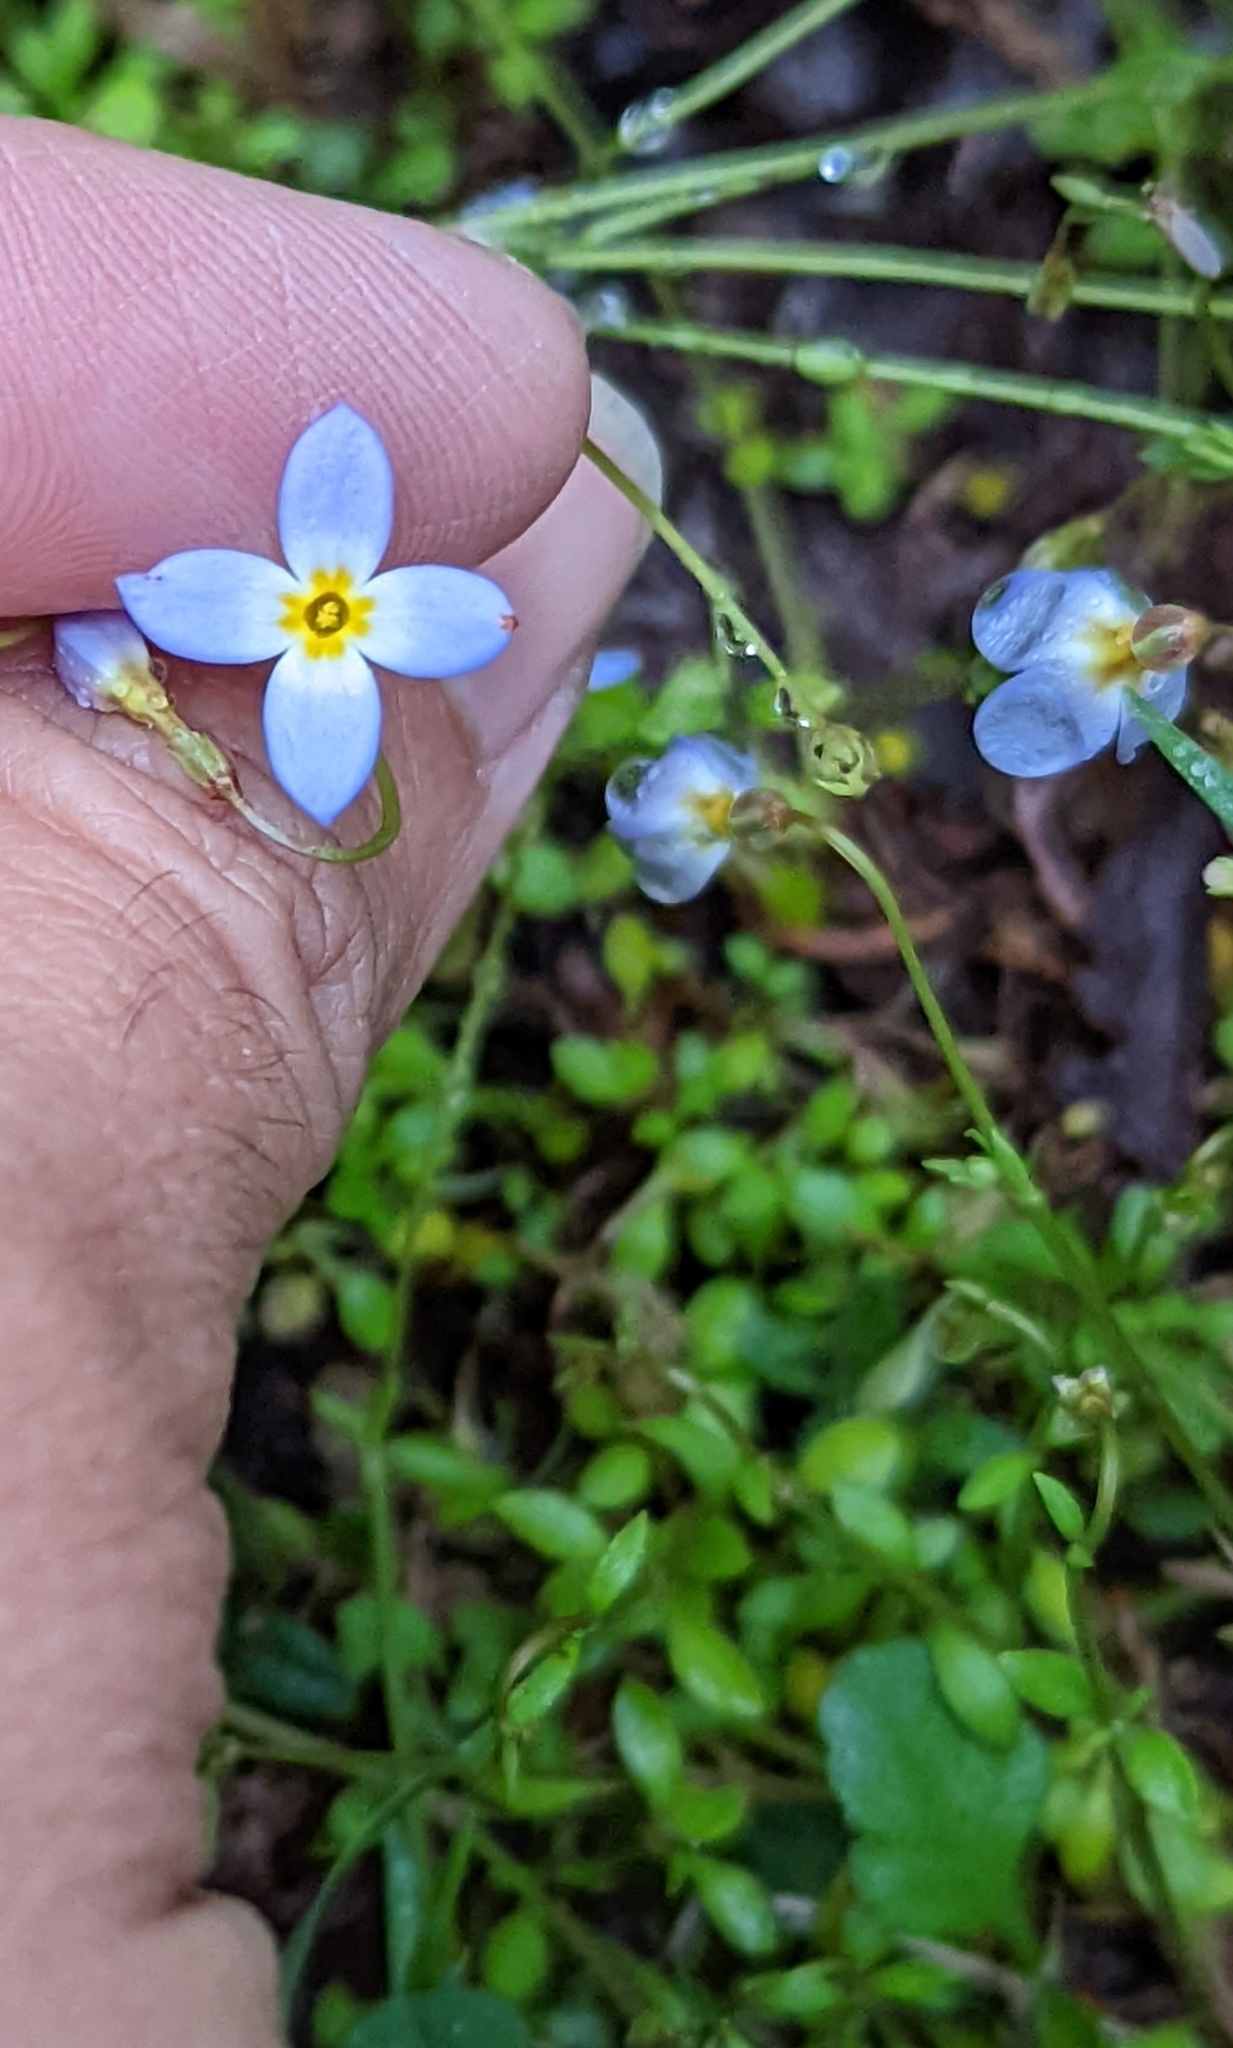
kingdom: Plantae
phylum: Tracheophyta
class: Magnoliopsida
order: Gentianales
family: Rubiaceae
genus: Houstonia
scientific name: Houstonia caerulea
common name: Bluets
